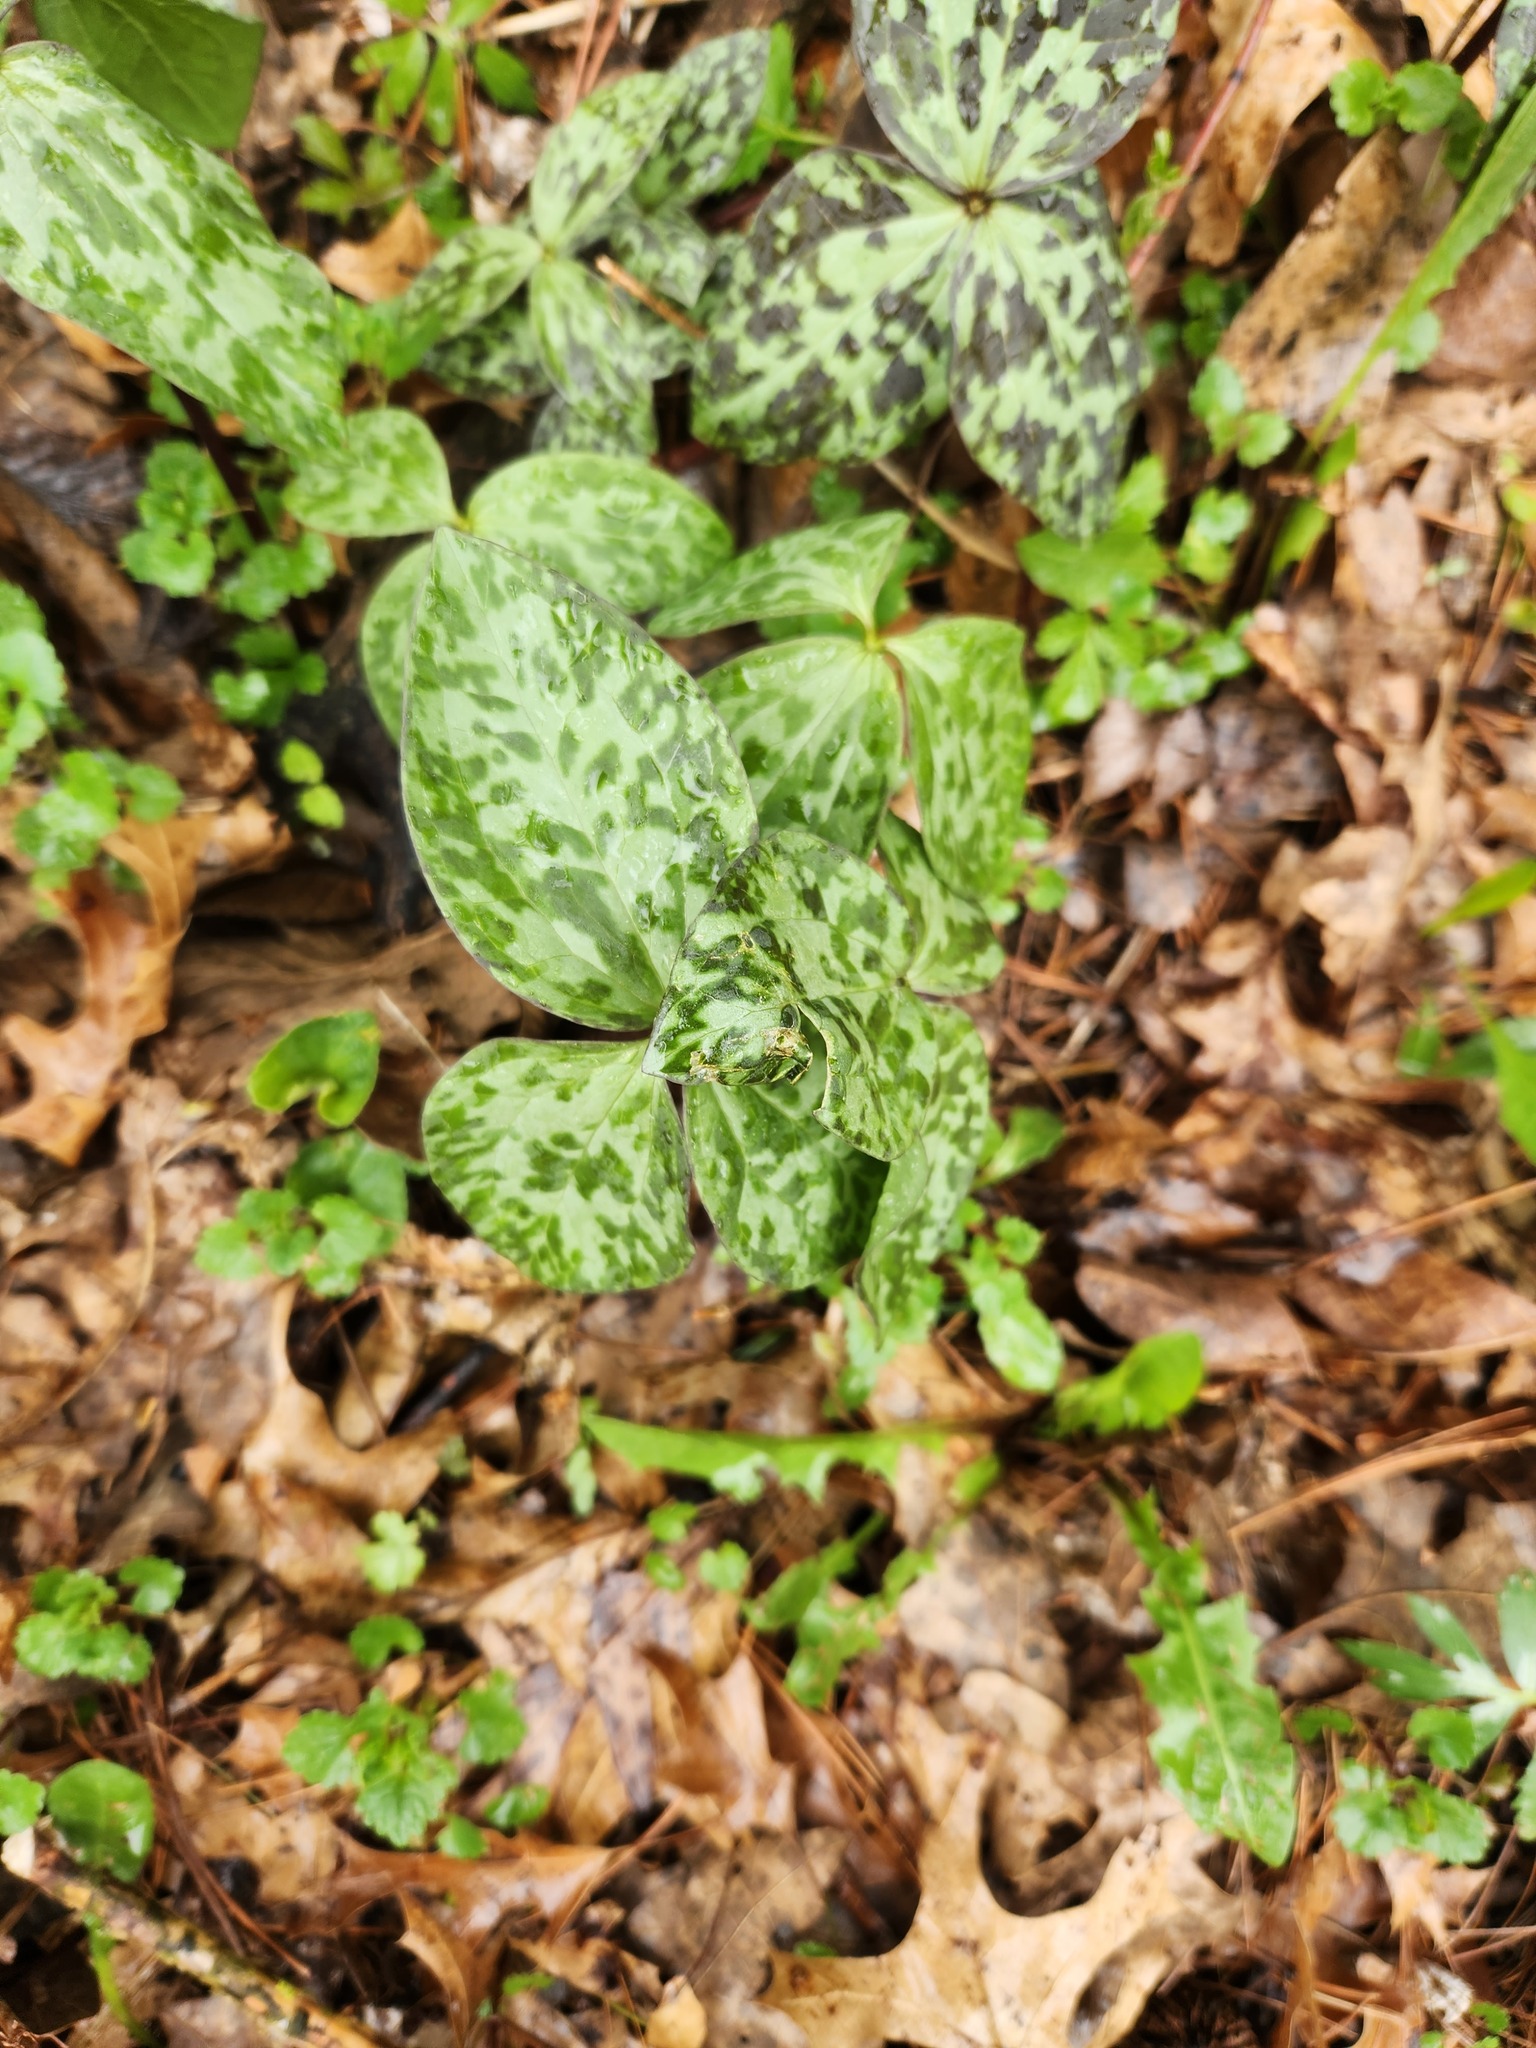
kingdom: Plantae
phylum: Tracheophyta
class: Liliopsida
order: Liliales
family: Melanthiaceae
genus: Trillium
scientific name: Trillium recurvatum
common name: Bloody butcher
